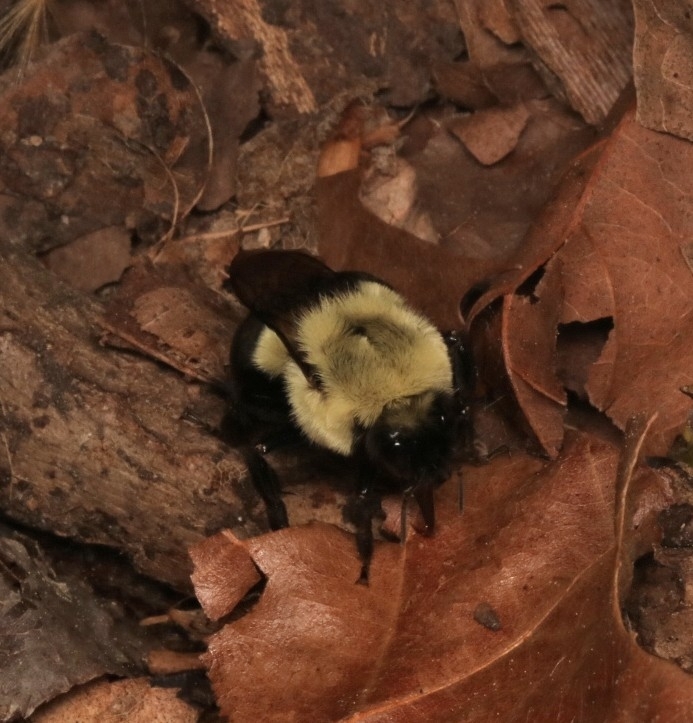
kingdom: Animalia
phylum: Arthropoda
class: Insecta
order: Hymenoptera
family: Apidae
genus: Bombus
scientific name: Bombus impatiens
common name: Common eastern bumble bee
